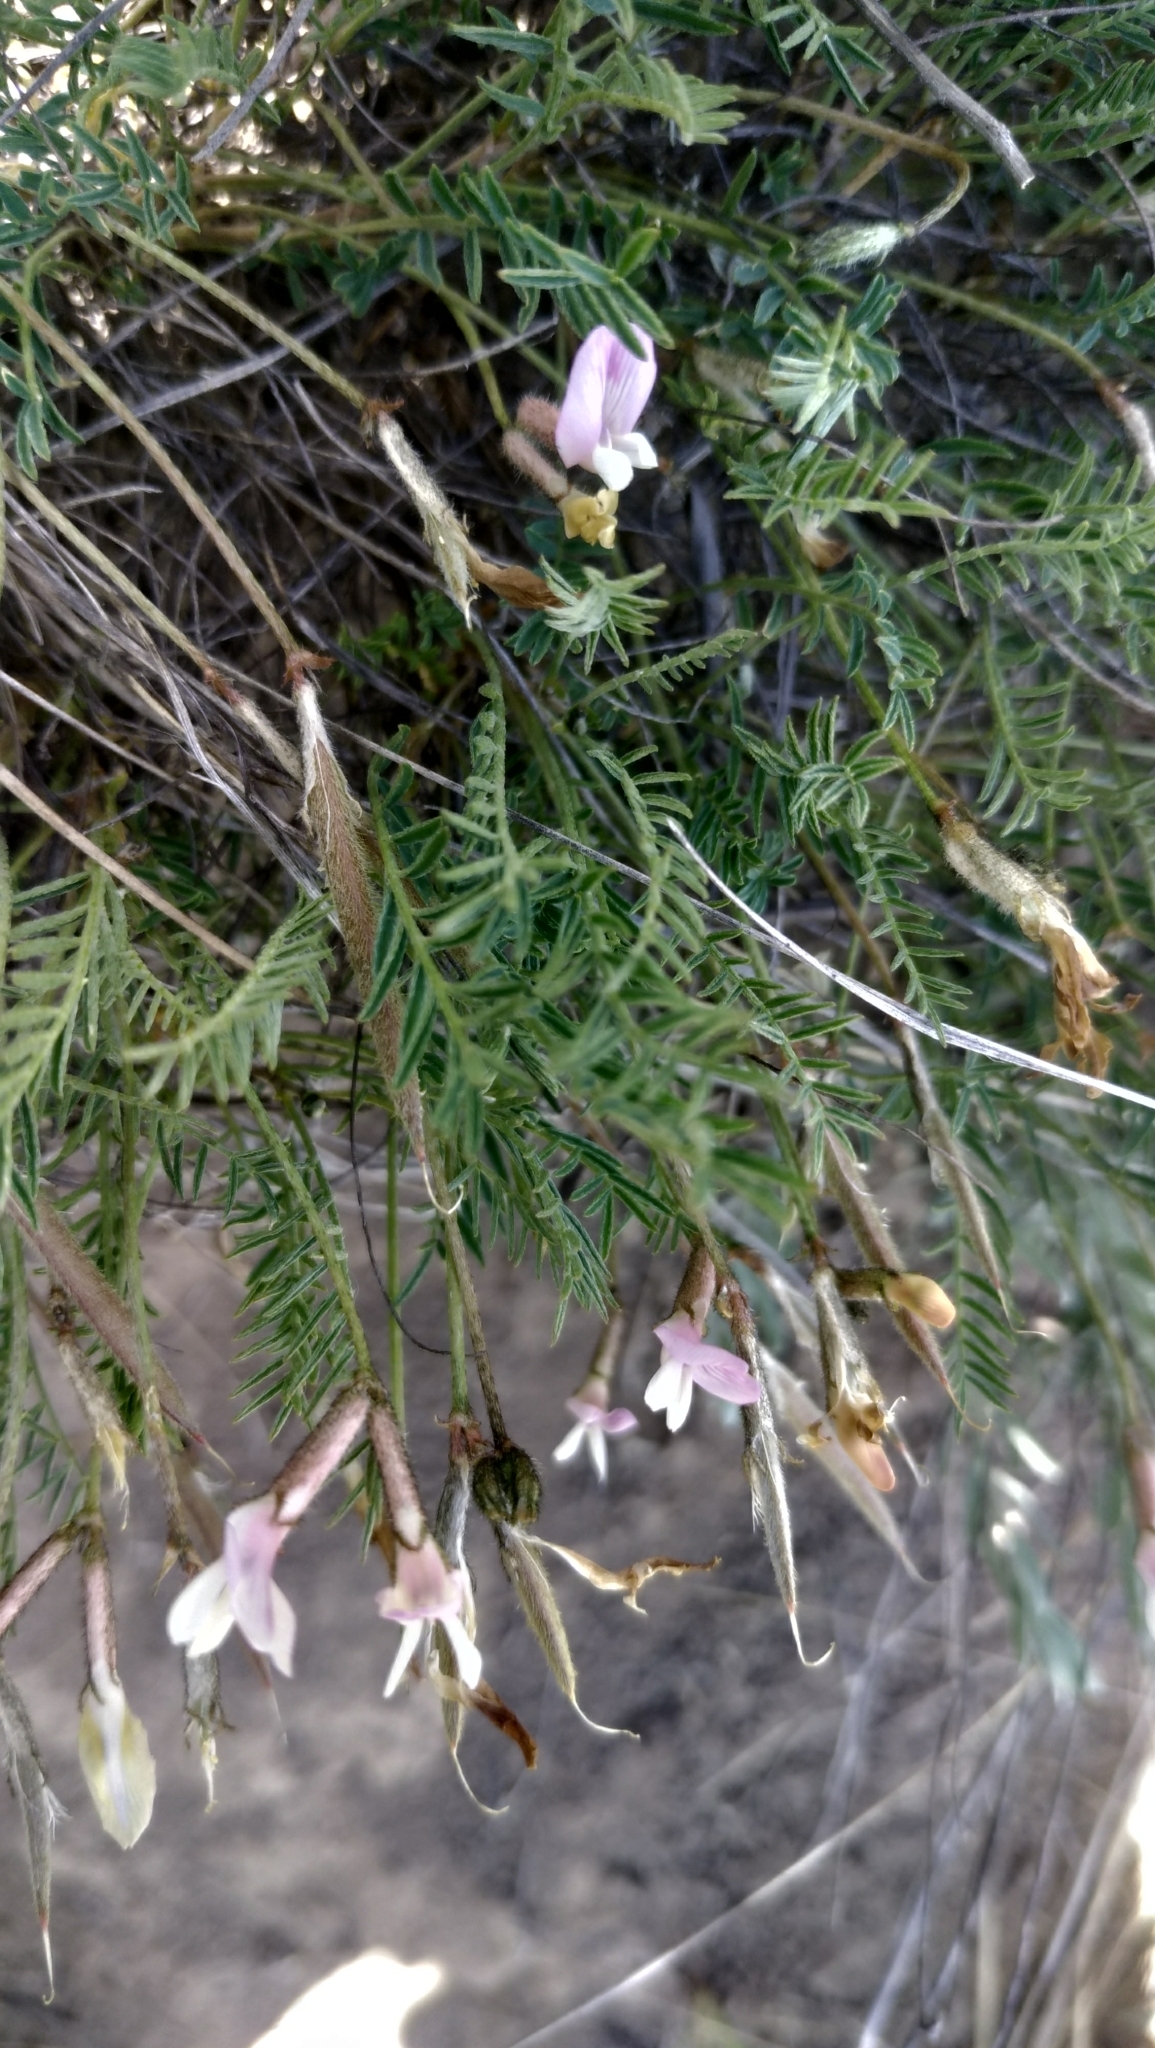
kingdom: Plantae
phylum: Tracheophyta
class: Magnoliopsida
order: Fabales
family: Fabaceae
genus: Astragalus
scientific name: Astragalus corniculatus
